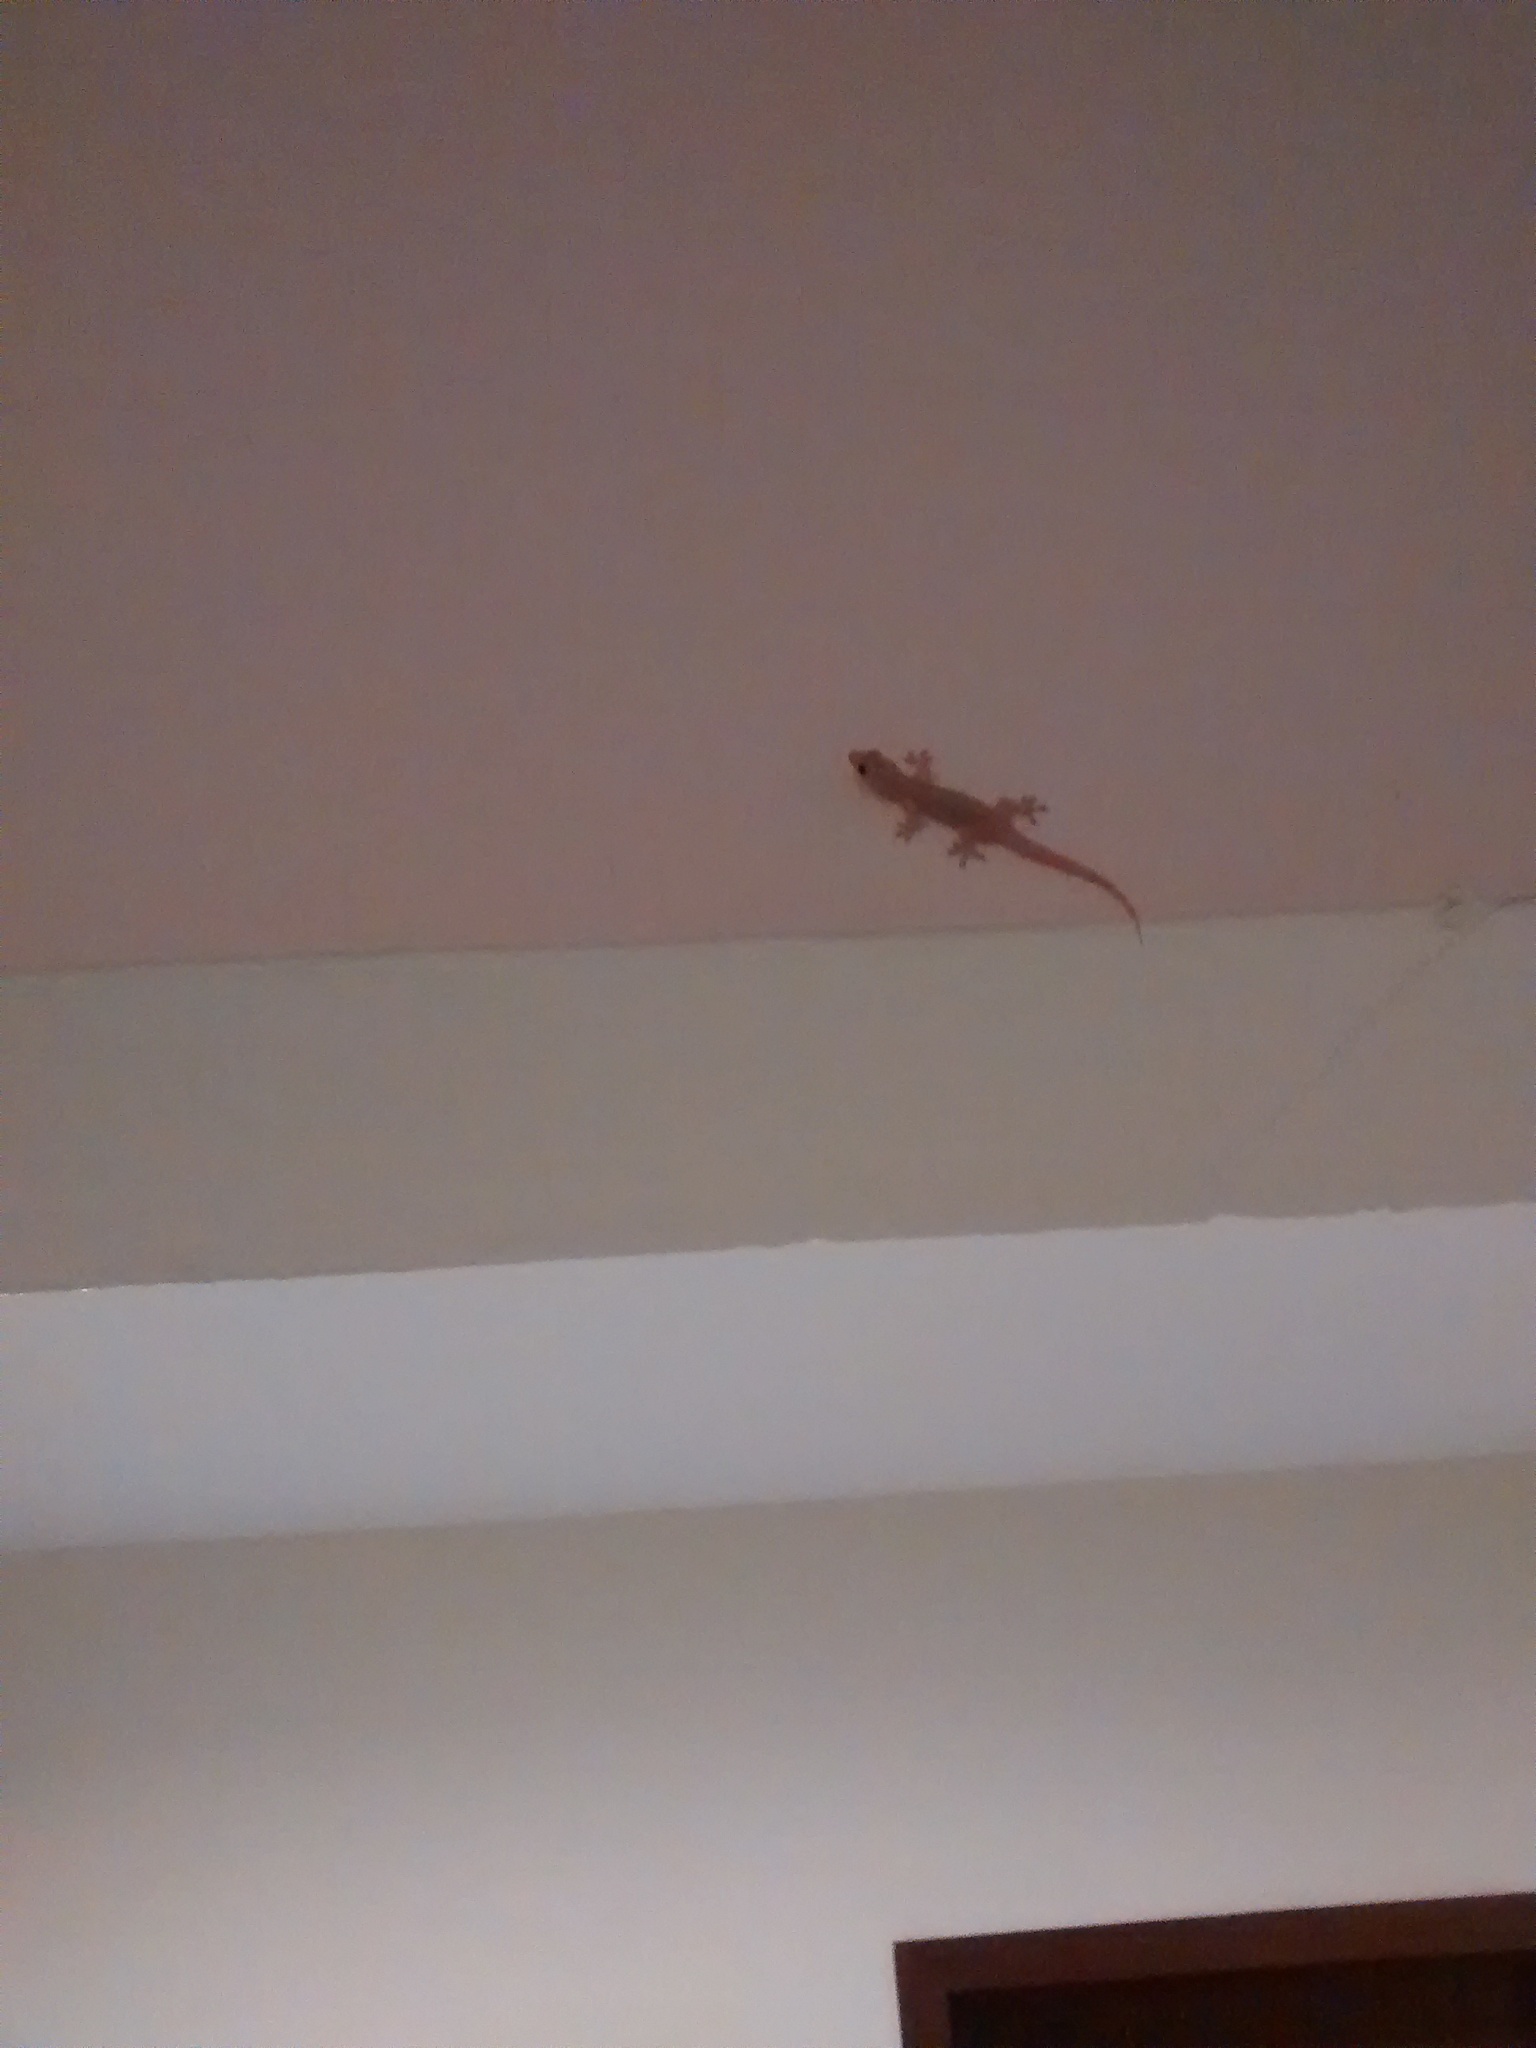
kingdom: Animalia
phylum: Chordata
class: Squamata
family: Gekkonidae
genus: Hemidactylus
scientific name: Hemidactylus frenatus
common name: Common house gecko
